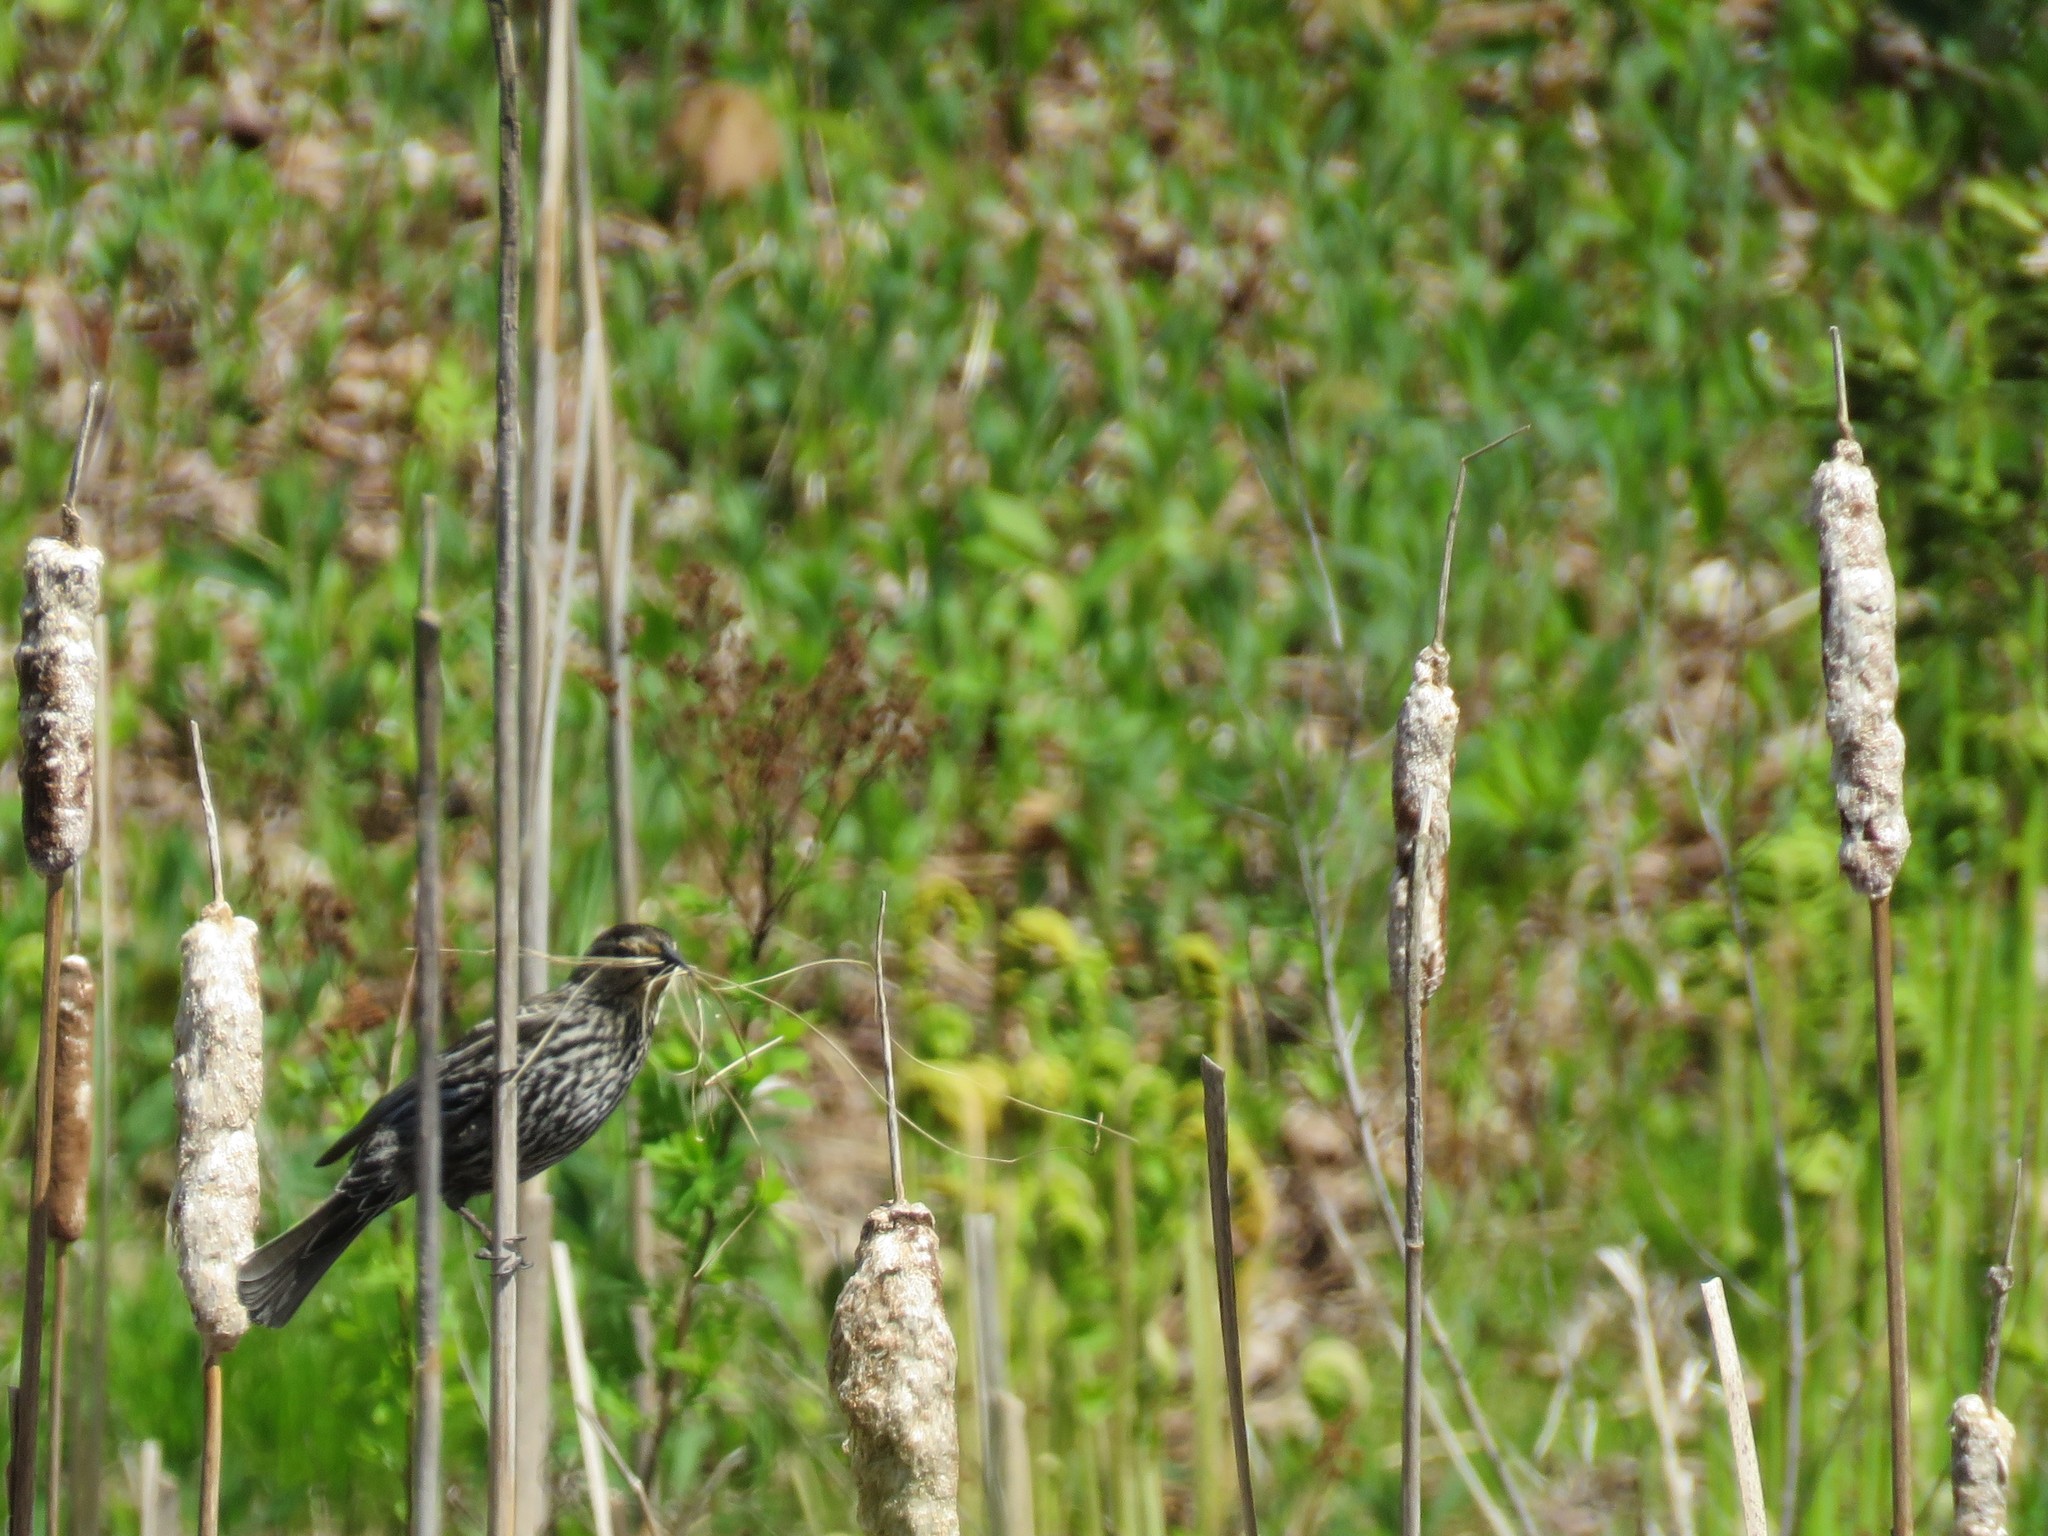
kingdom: Animalia
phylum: Chordata
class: Aves
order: Passeriformes
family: Icteridae
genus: Agelaius
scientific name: Agelaius phoeniceus
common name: Red-winged blackbird
